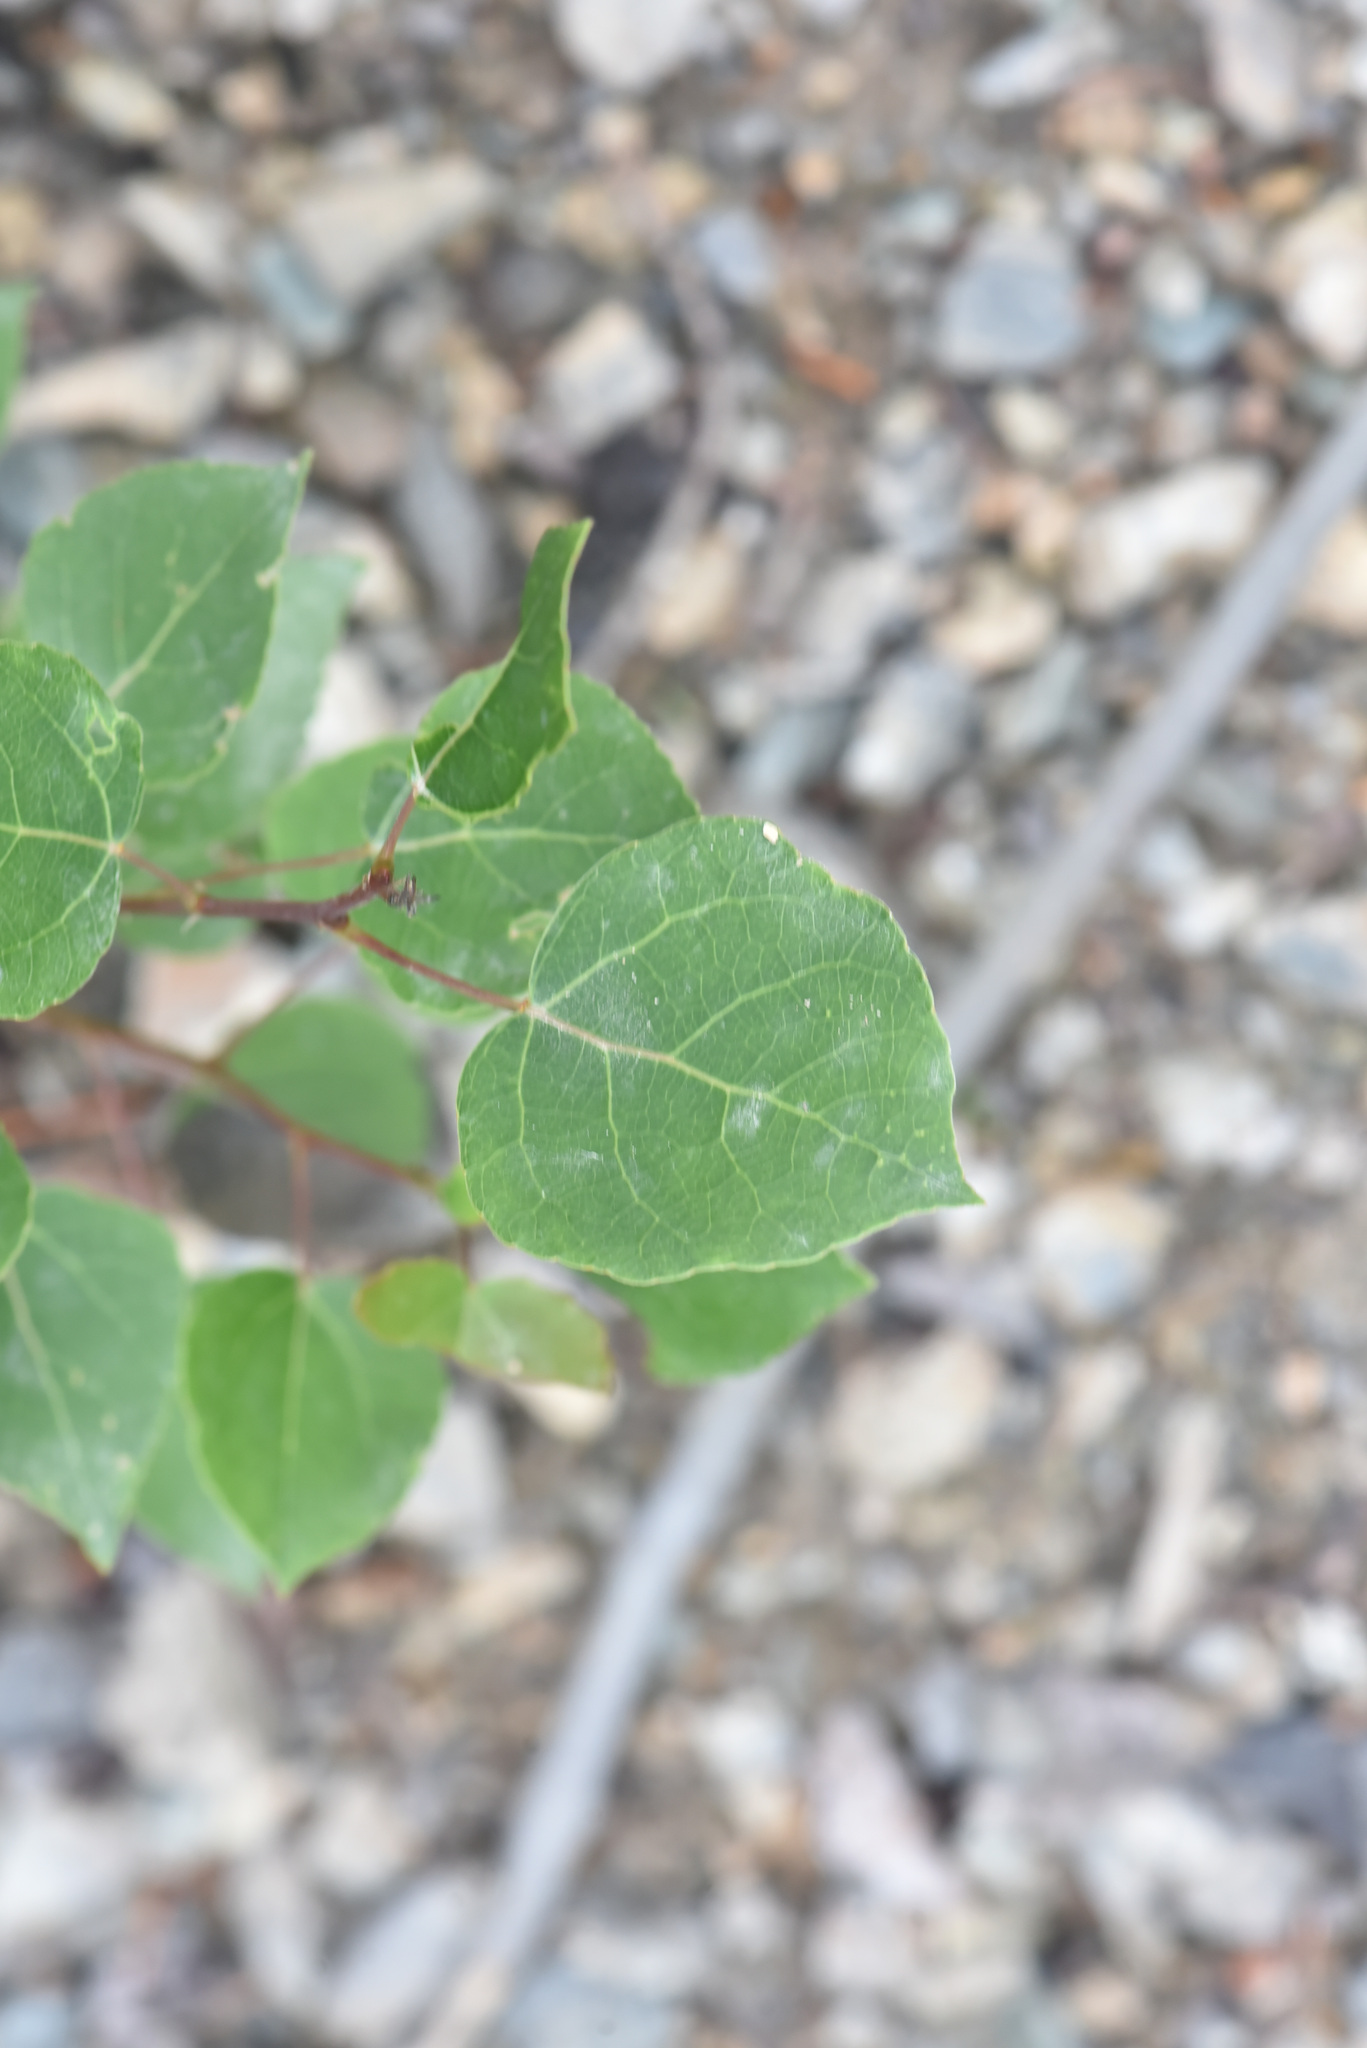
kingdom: Plantae
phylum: Tracheophyta
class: Magnoliopsida
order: Malpighiales
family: Salicaceae
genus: Populus
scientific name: Populus tremuloides
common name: Quaking aspen
